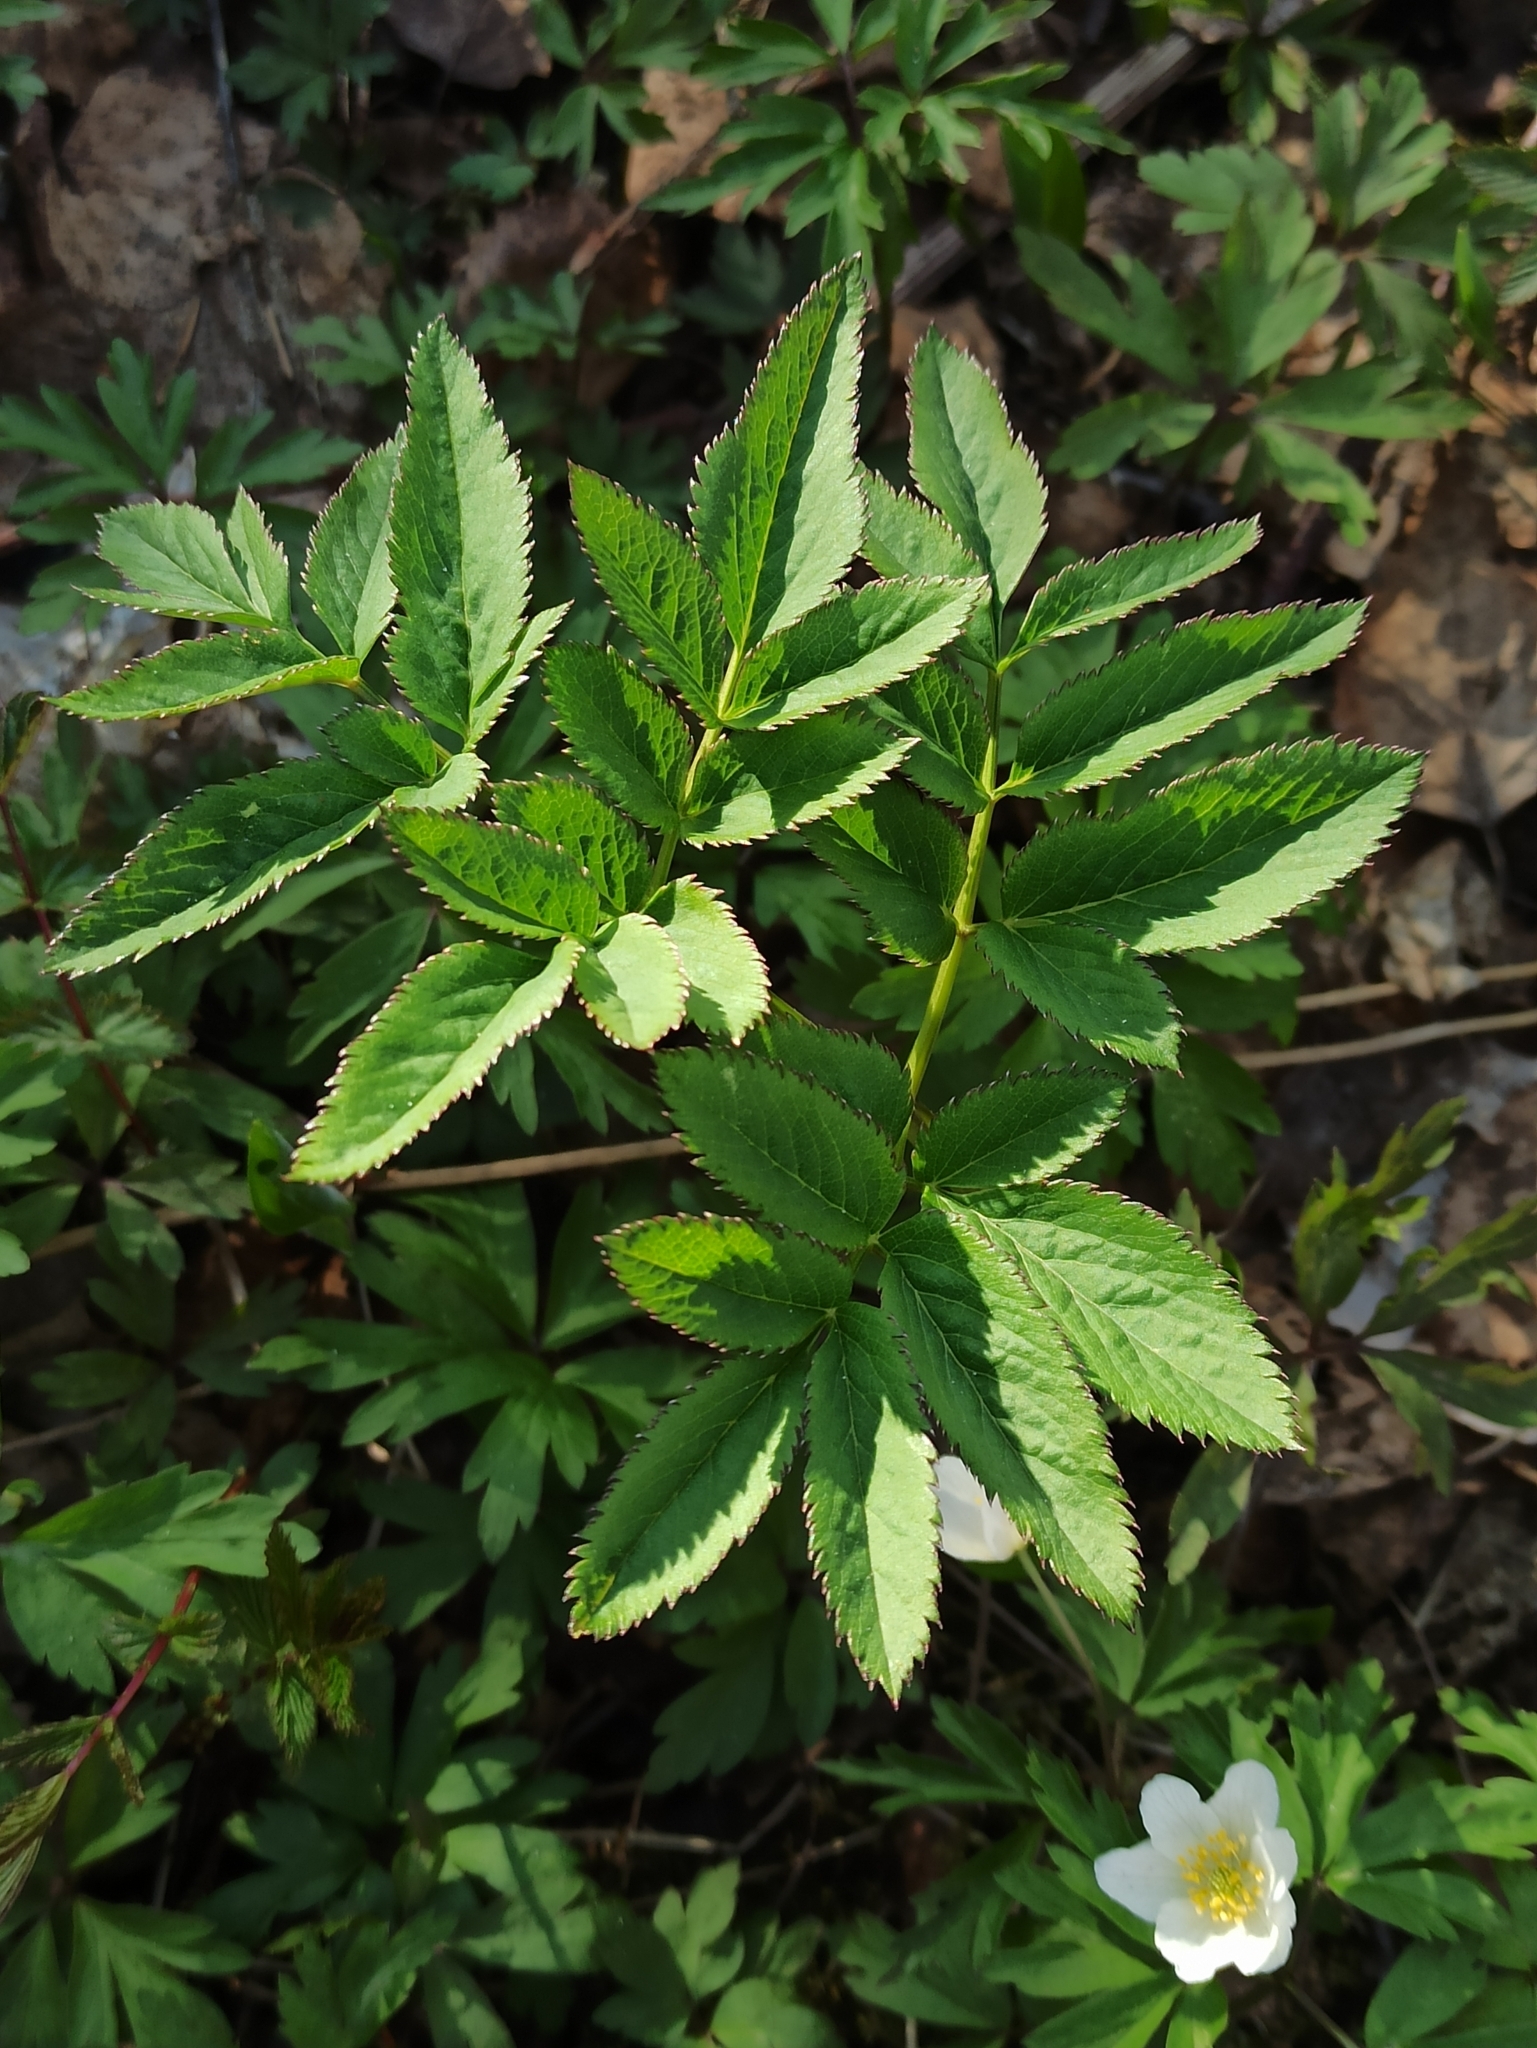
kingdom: Plantae
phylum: Tracheophyta
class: Magnoliopsida
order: Apiales
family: Apiaceae
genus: Angelica
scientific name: Angelica sylvestris
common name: Wild angelica
